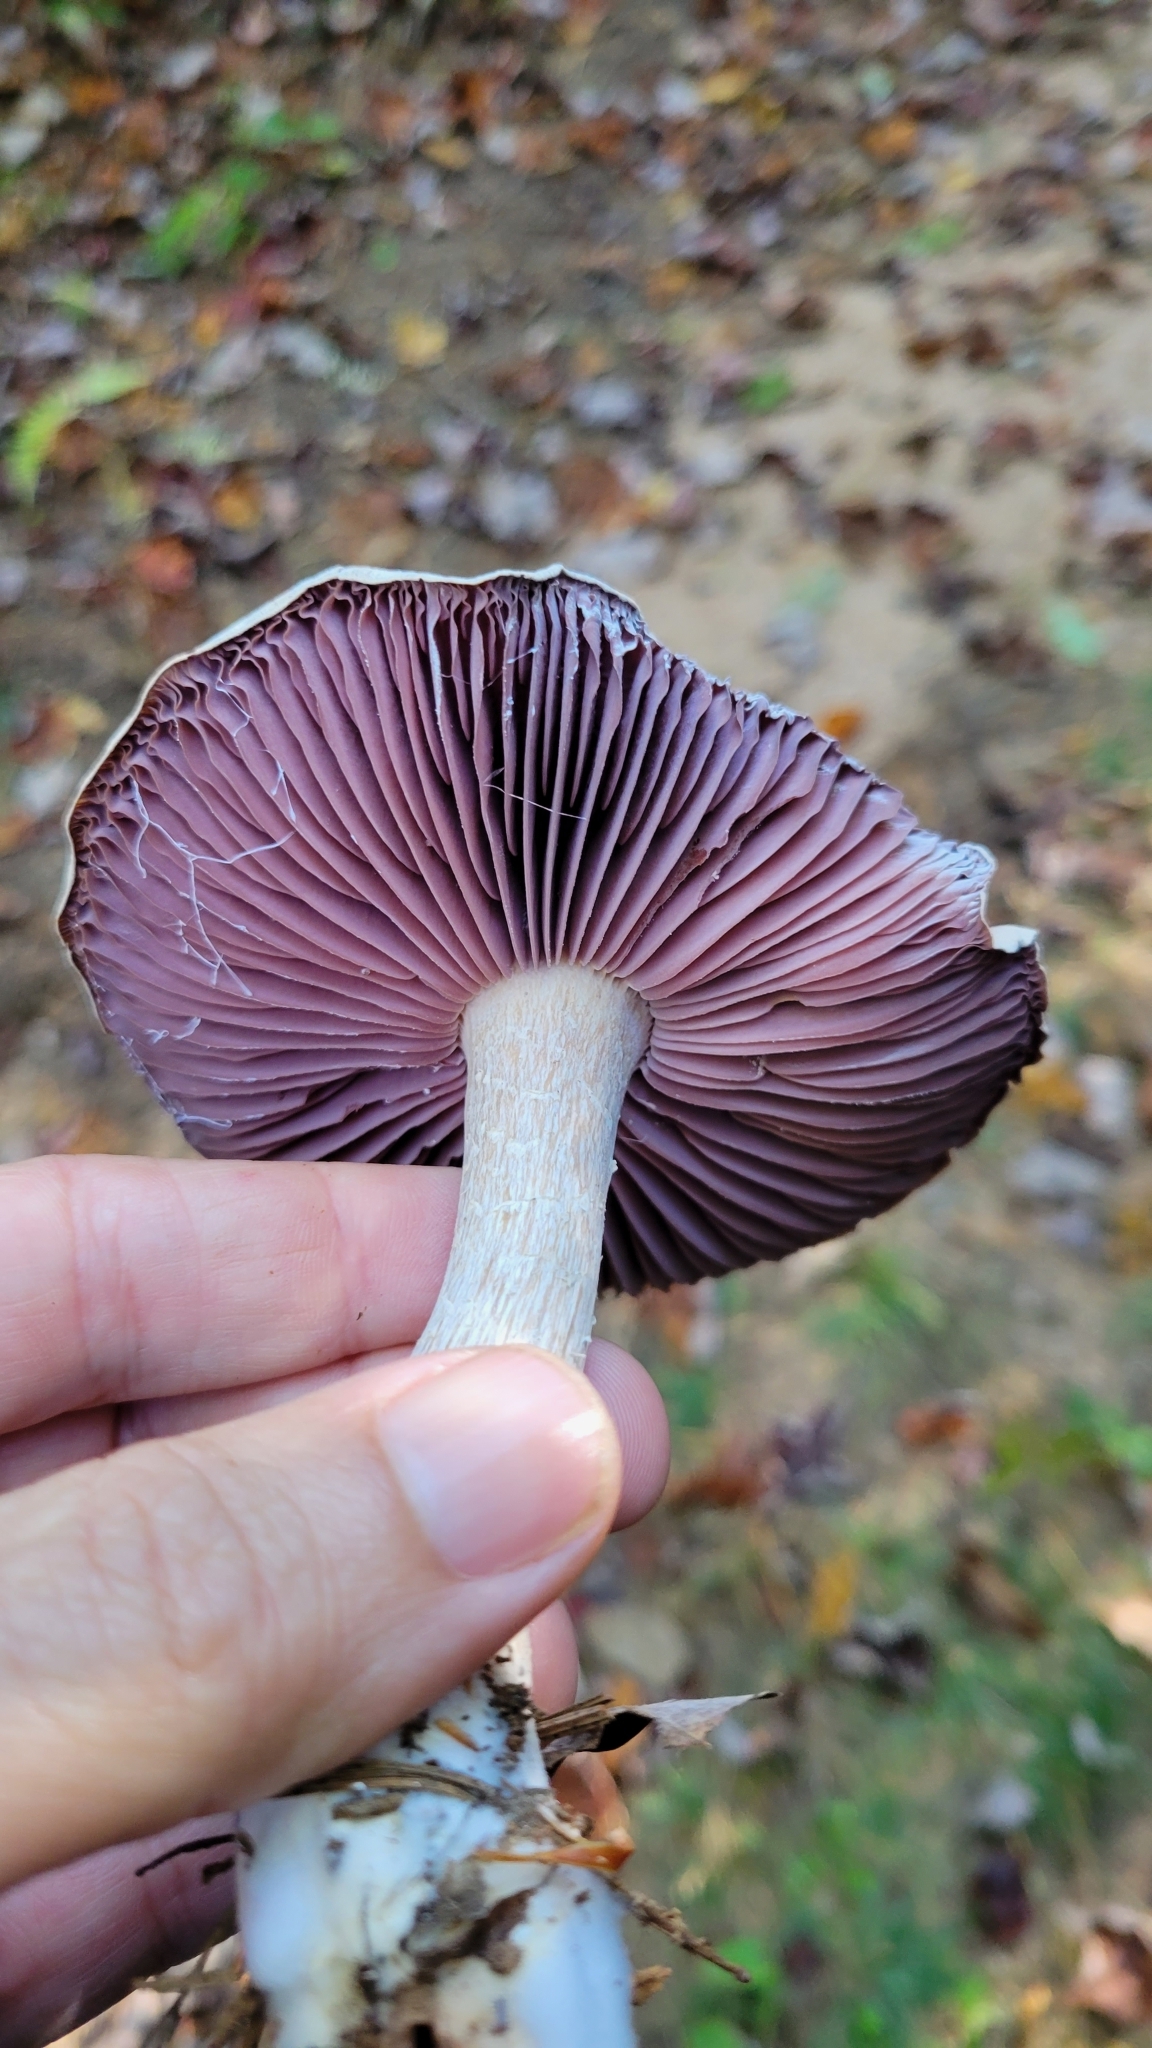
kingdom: Fungi
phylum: Basidiomycota
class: Agaricomycetes
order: Agaricales
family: Hydnangiaceae
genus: Laccaria
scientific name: Laccaria ochropurpurea
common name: Purple laccaria
